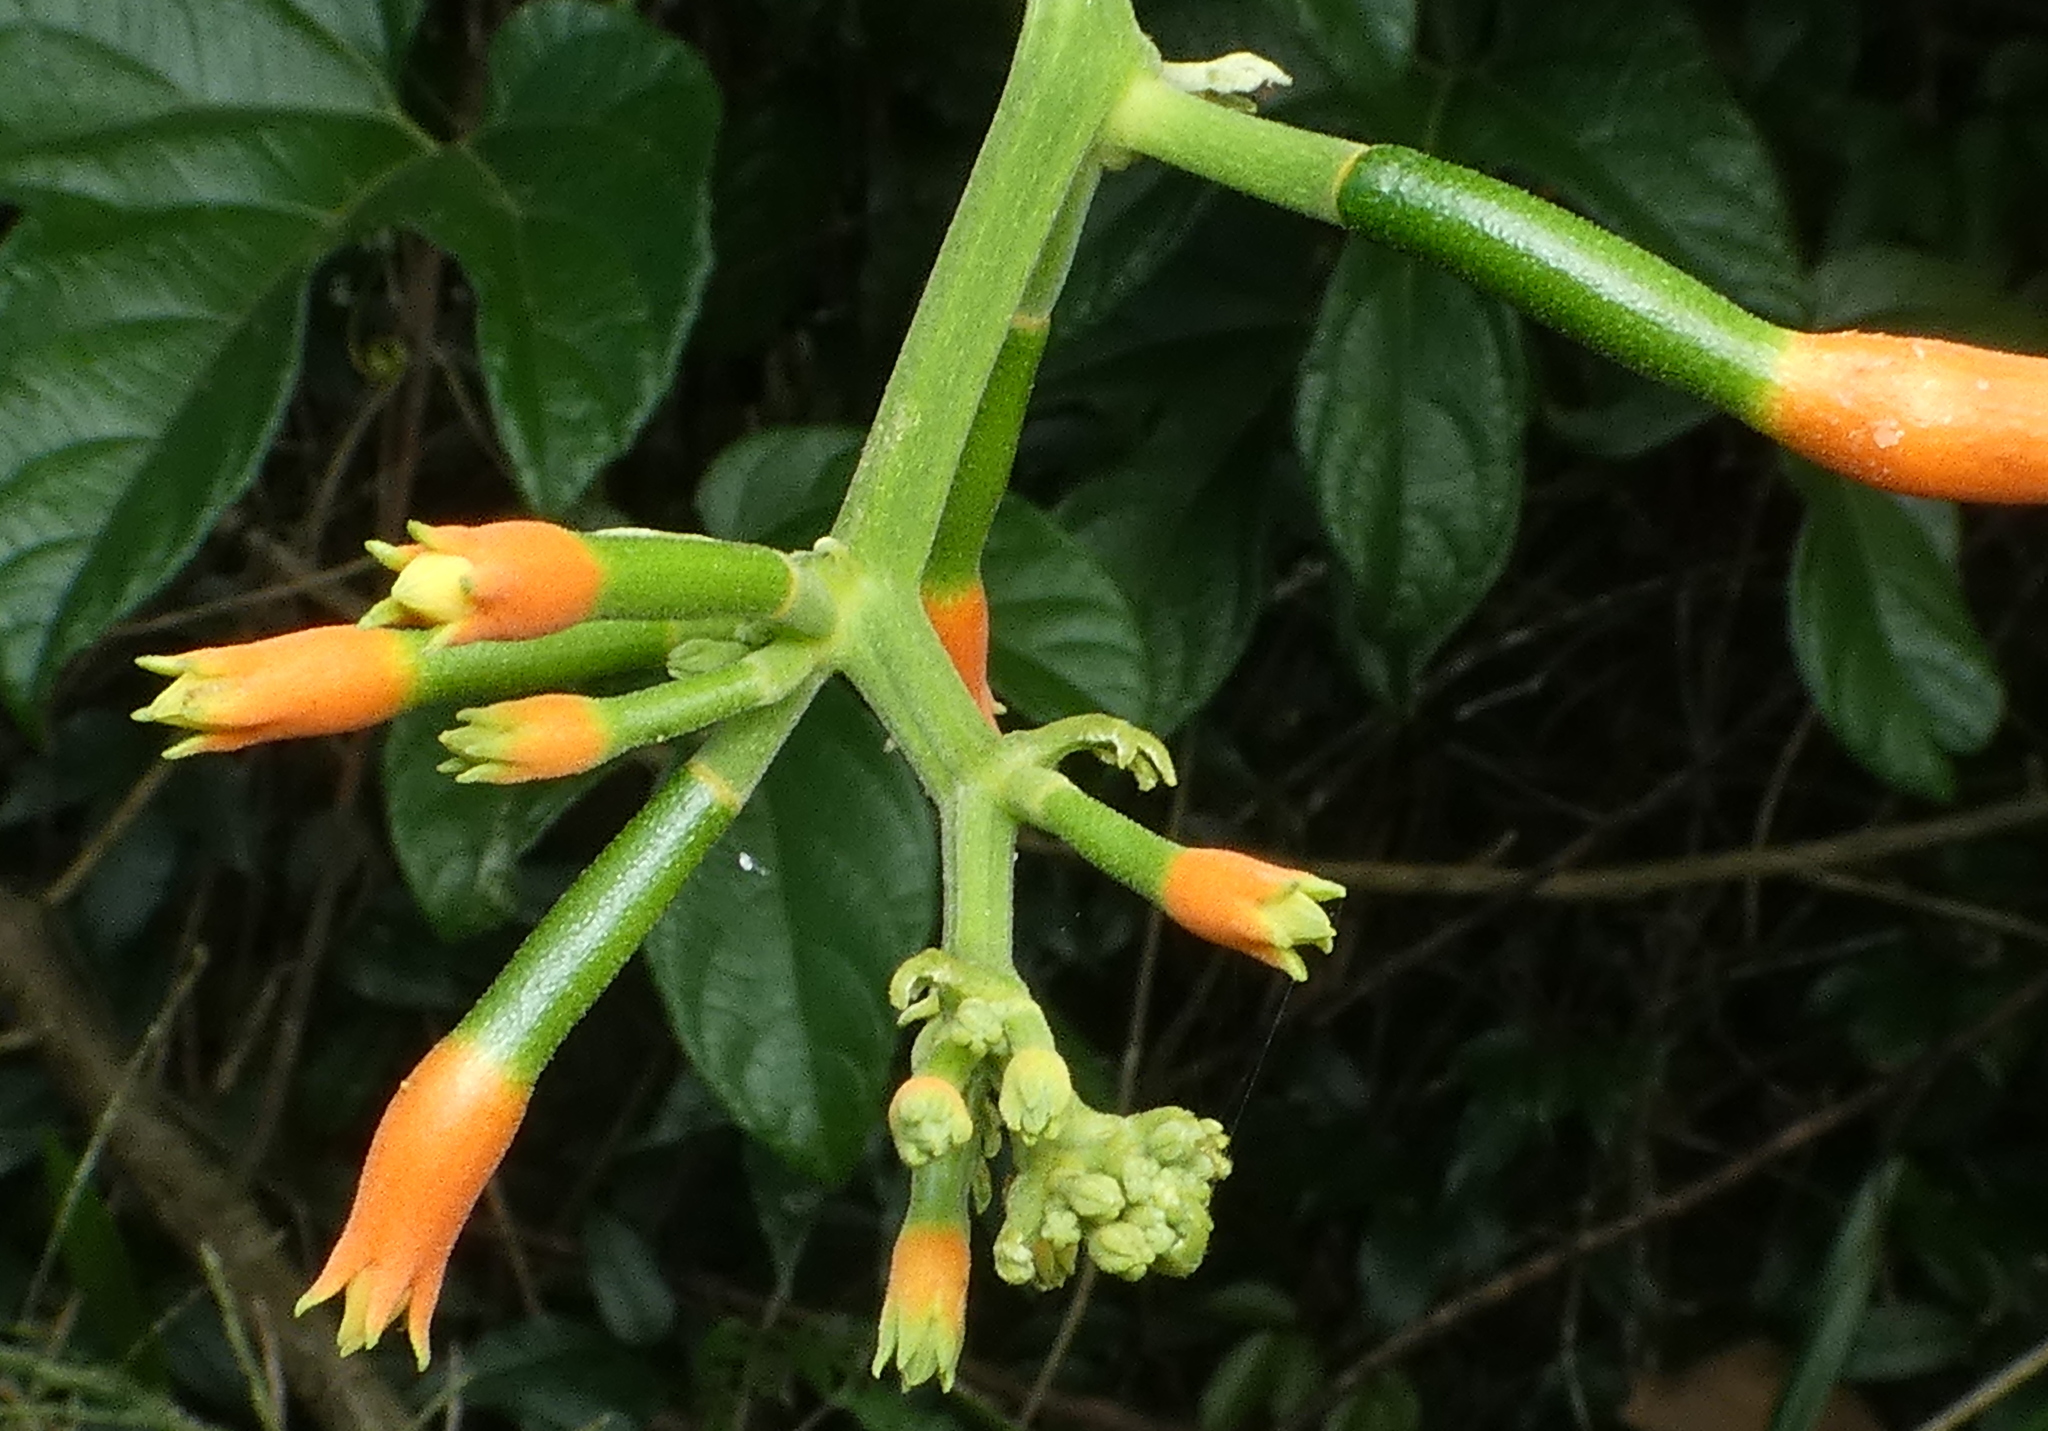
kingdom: Plantae
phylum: Tracheophyta
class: Magnoliopsida
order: Cucurbitales
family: Cucurbitaceae
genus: Gurania
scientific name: Gurania lobata
